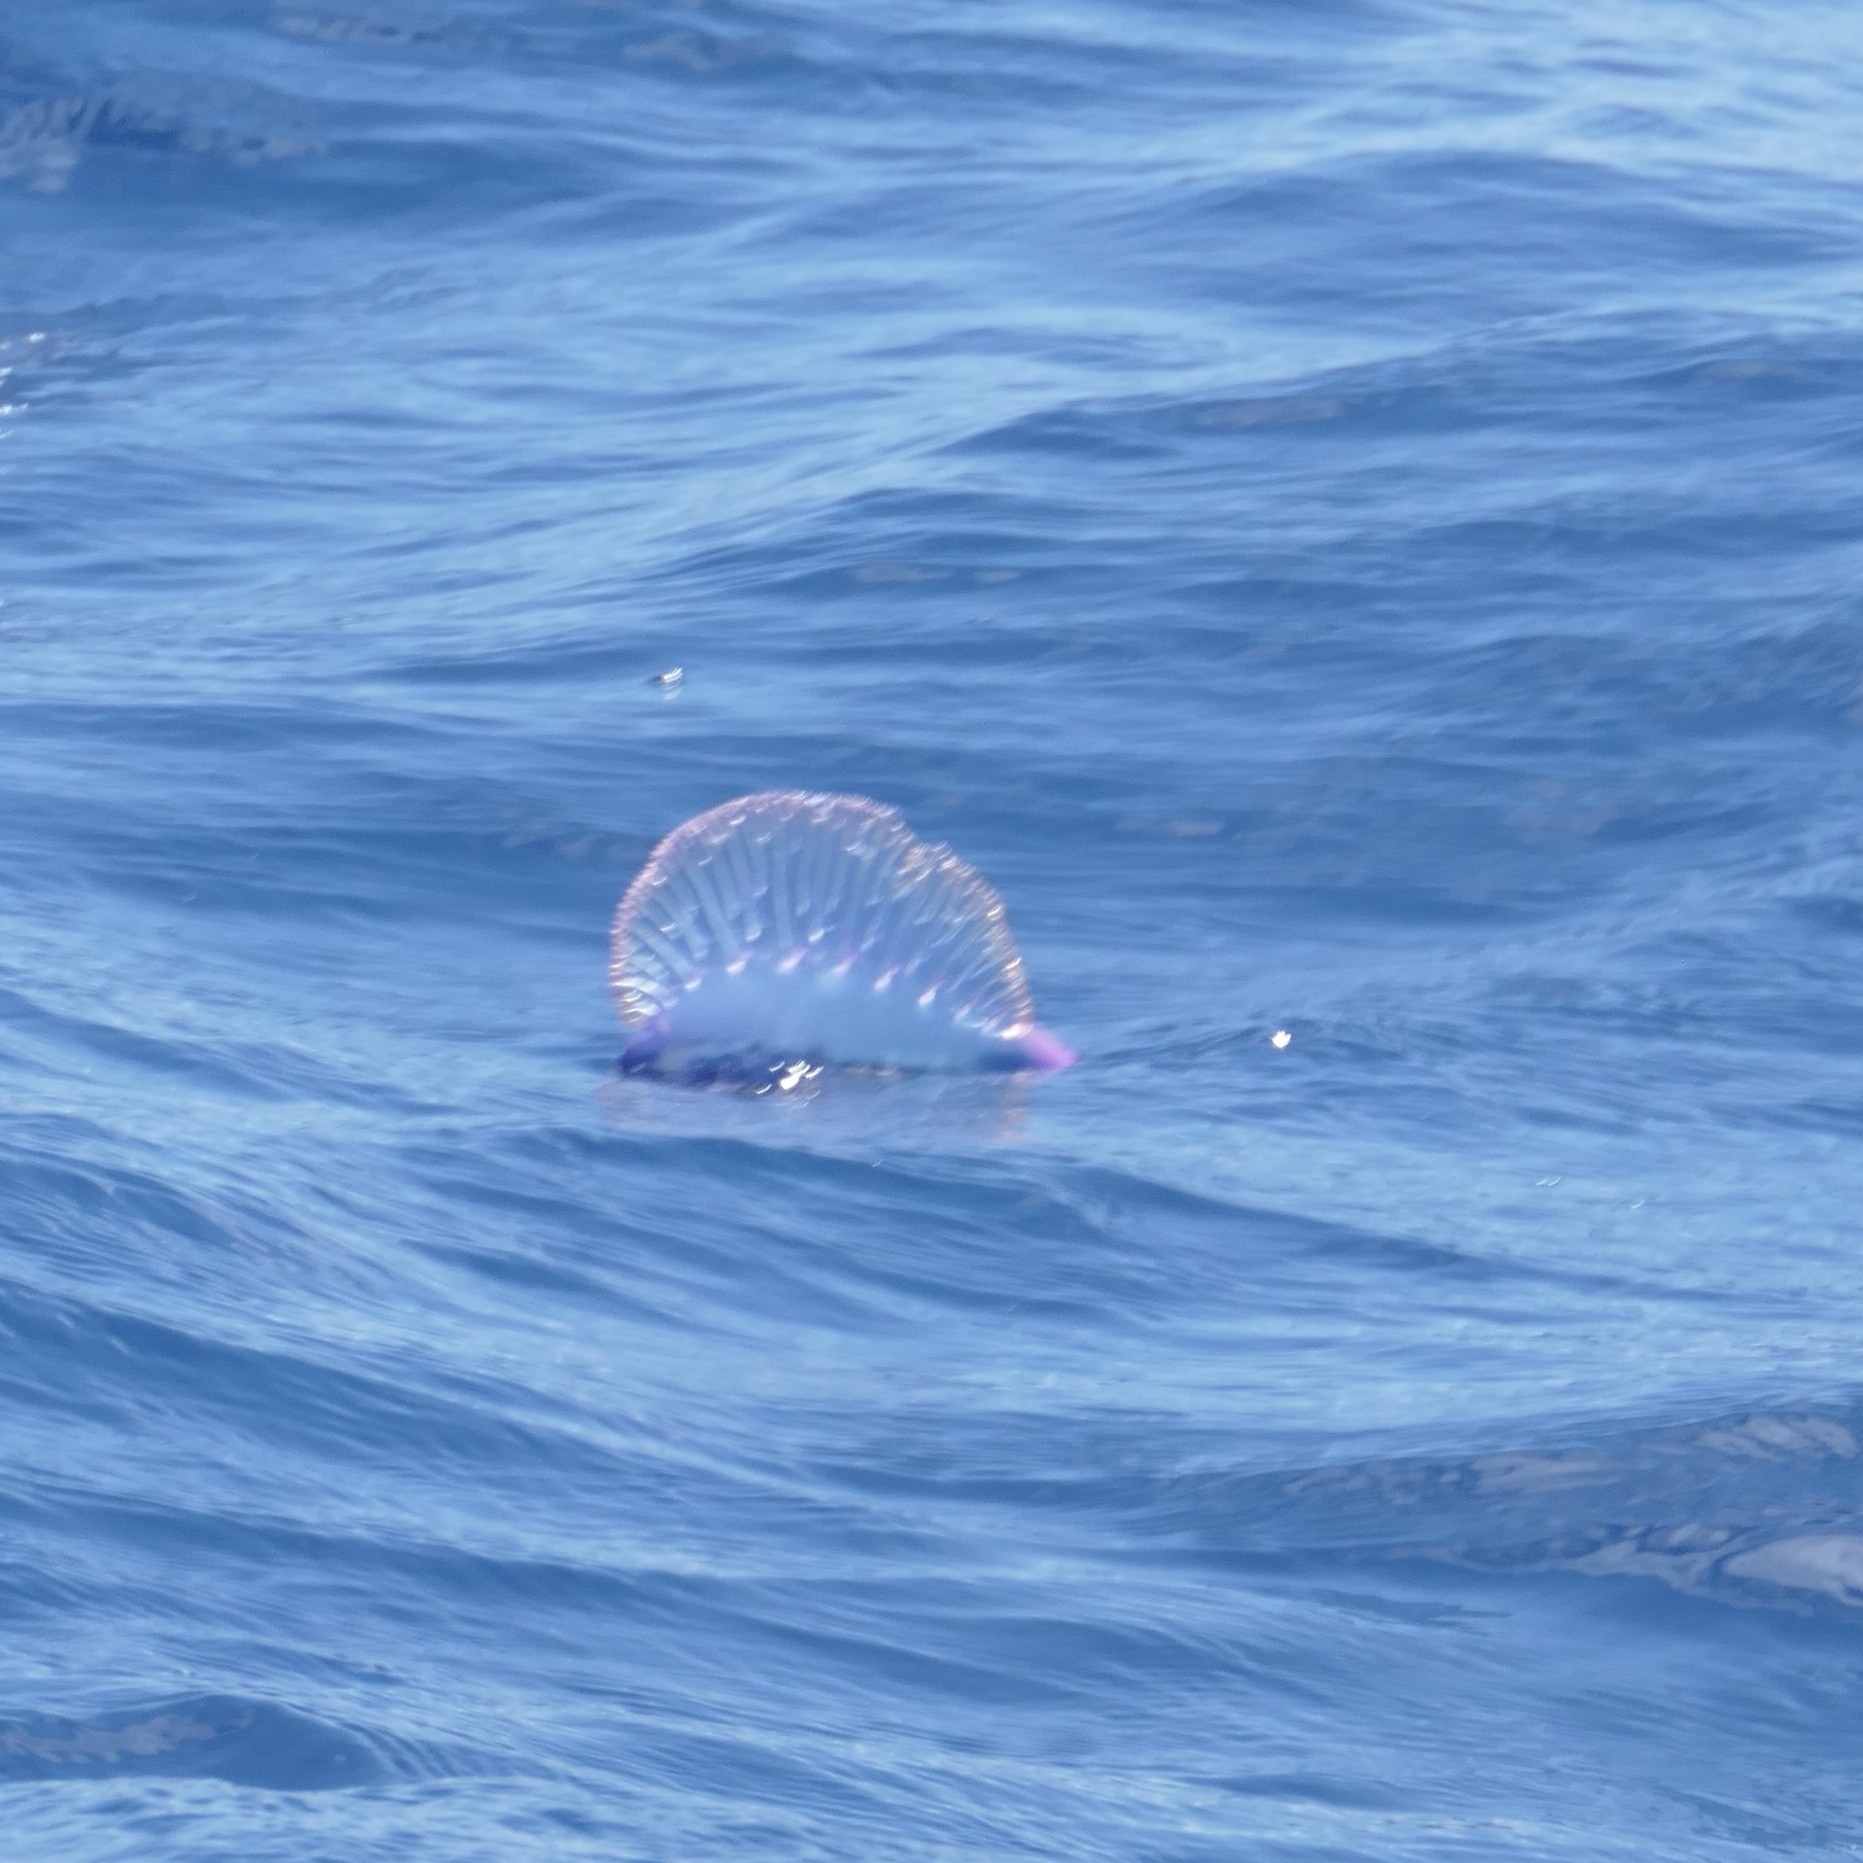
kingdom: Animalia
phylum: Cnidaria
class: Hydrozoa
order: Siphonophorae
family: Physaliidae
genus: Physalia
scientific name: Physalia physalis
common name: Portuguese man-of-war
